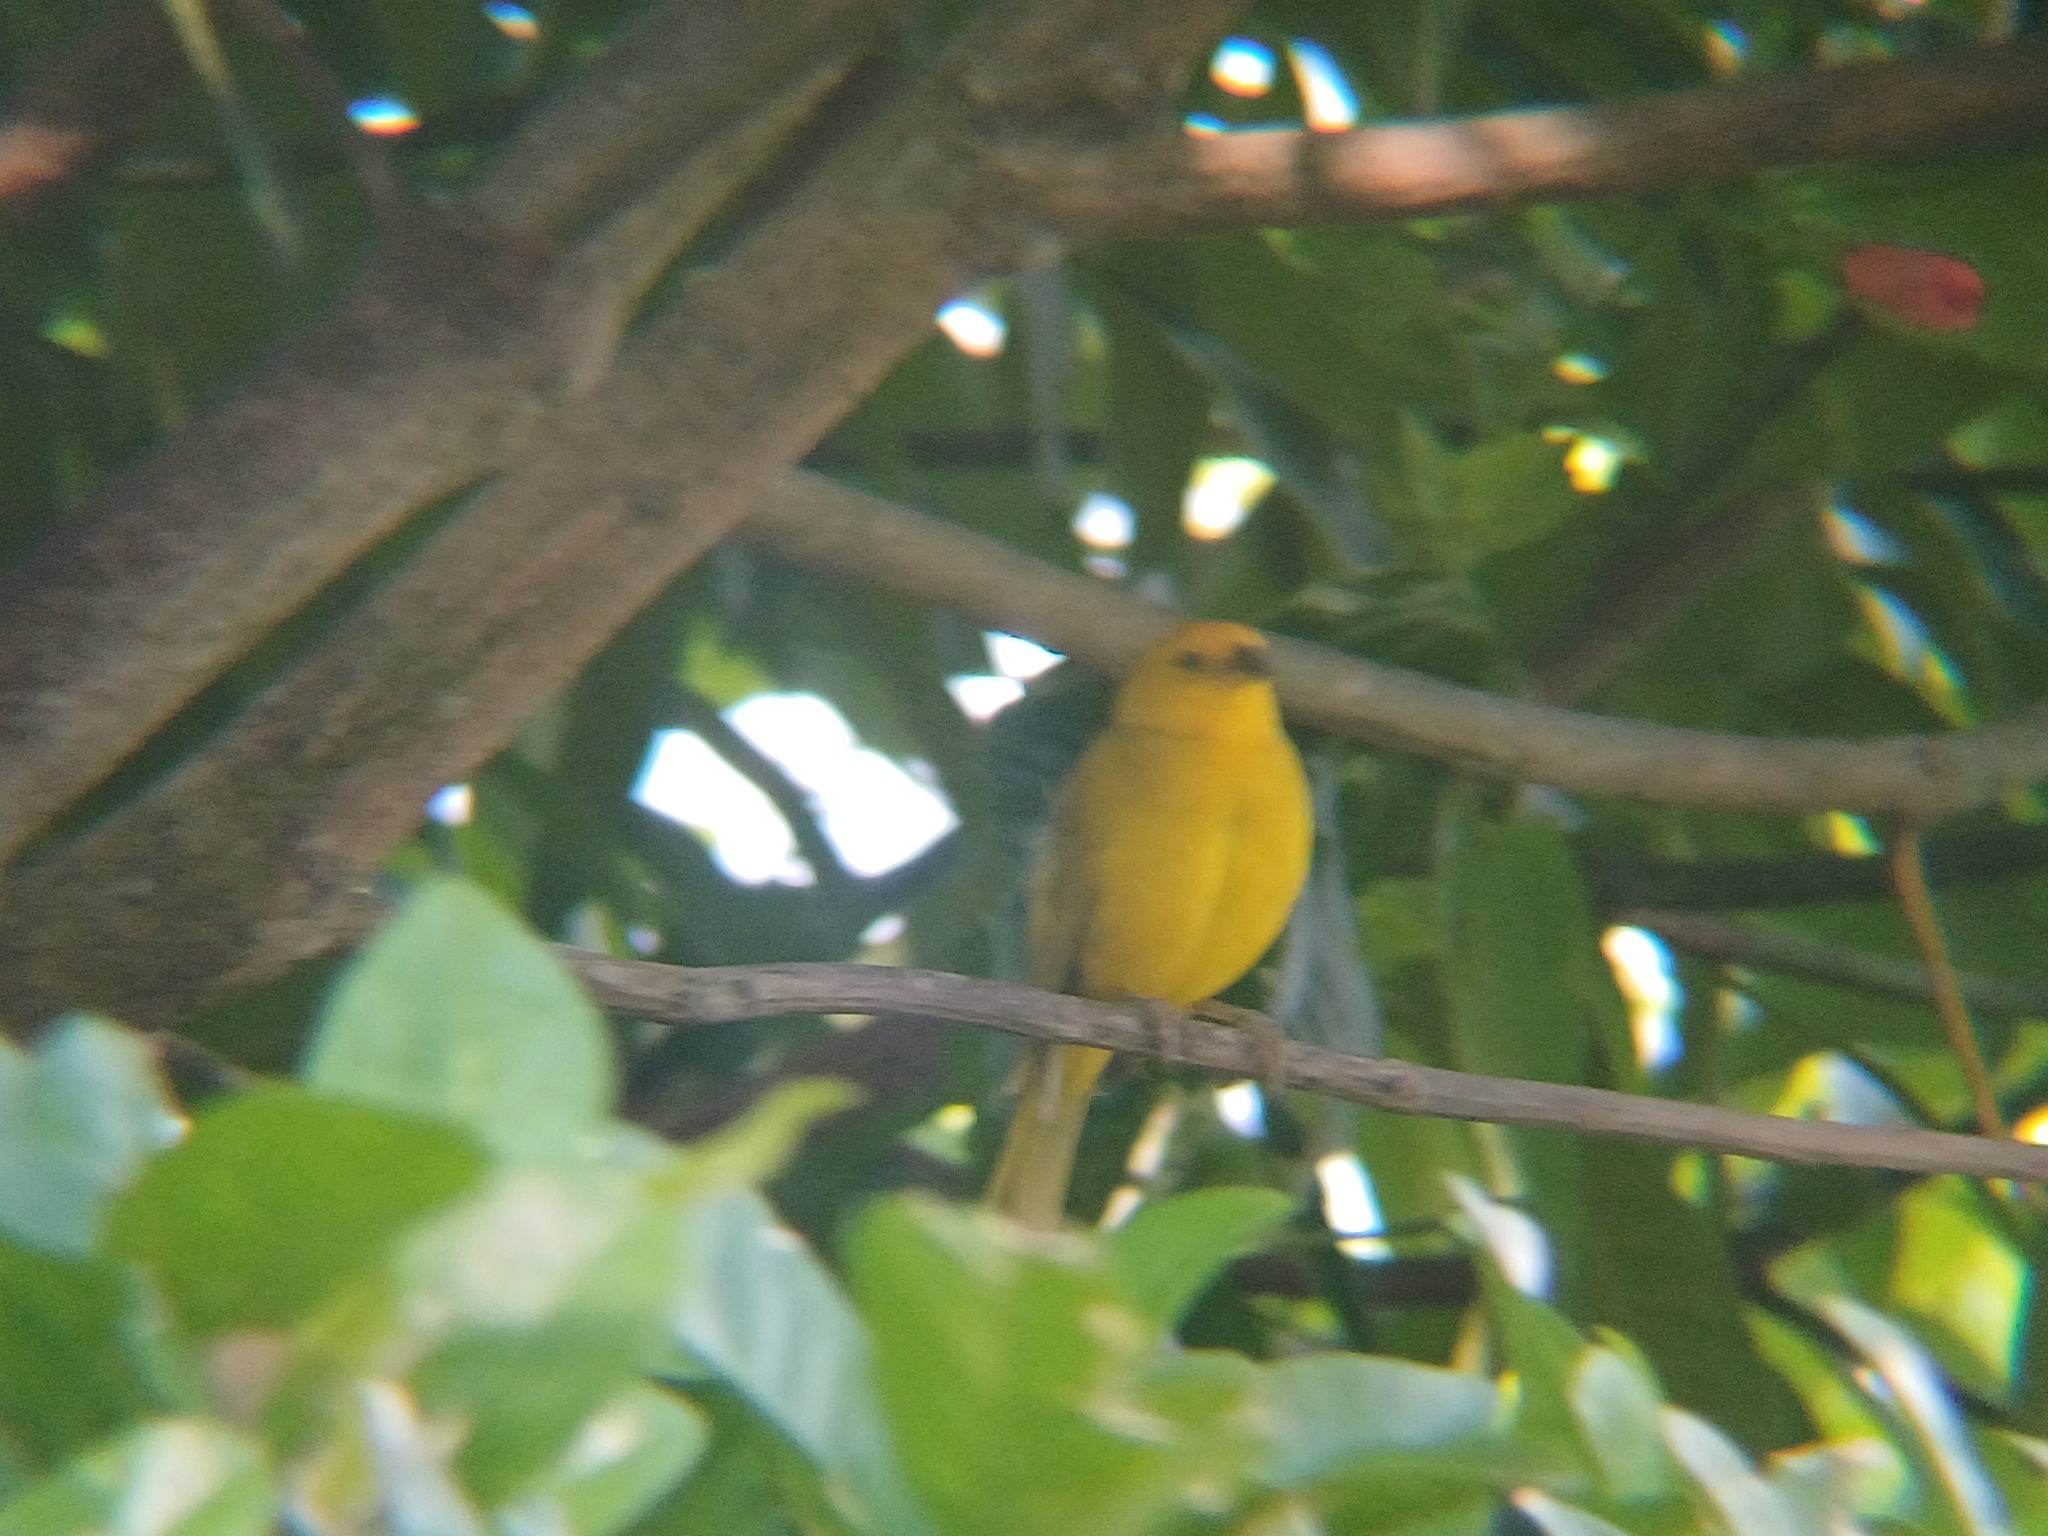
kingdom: Animalia
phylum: Chordata
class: Aves
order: Passeriformes
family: Thraupidae
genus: Sicalis
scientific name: Sicalis flaveola
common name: Saffron finch
